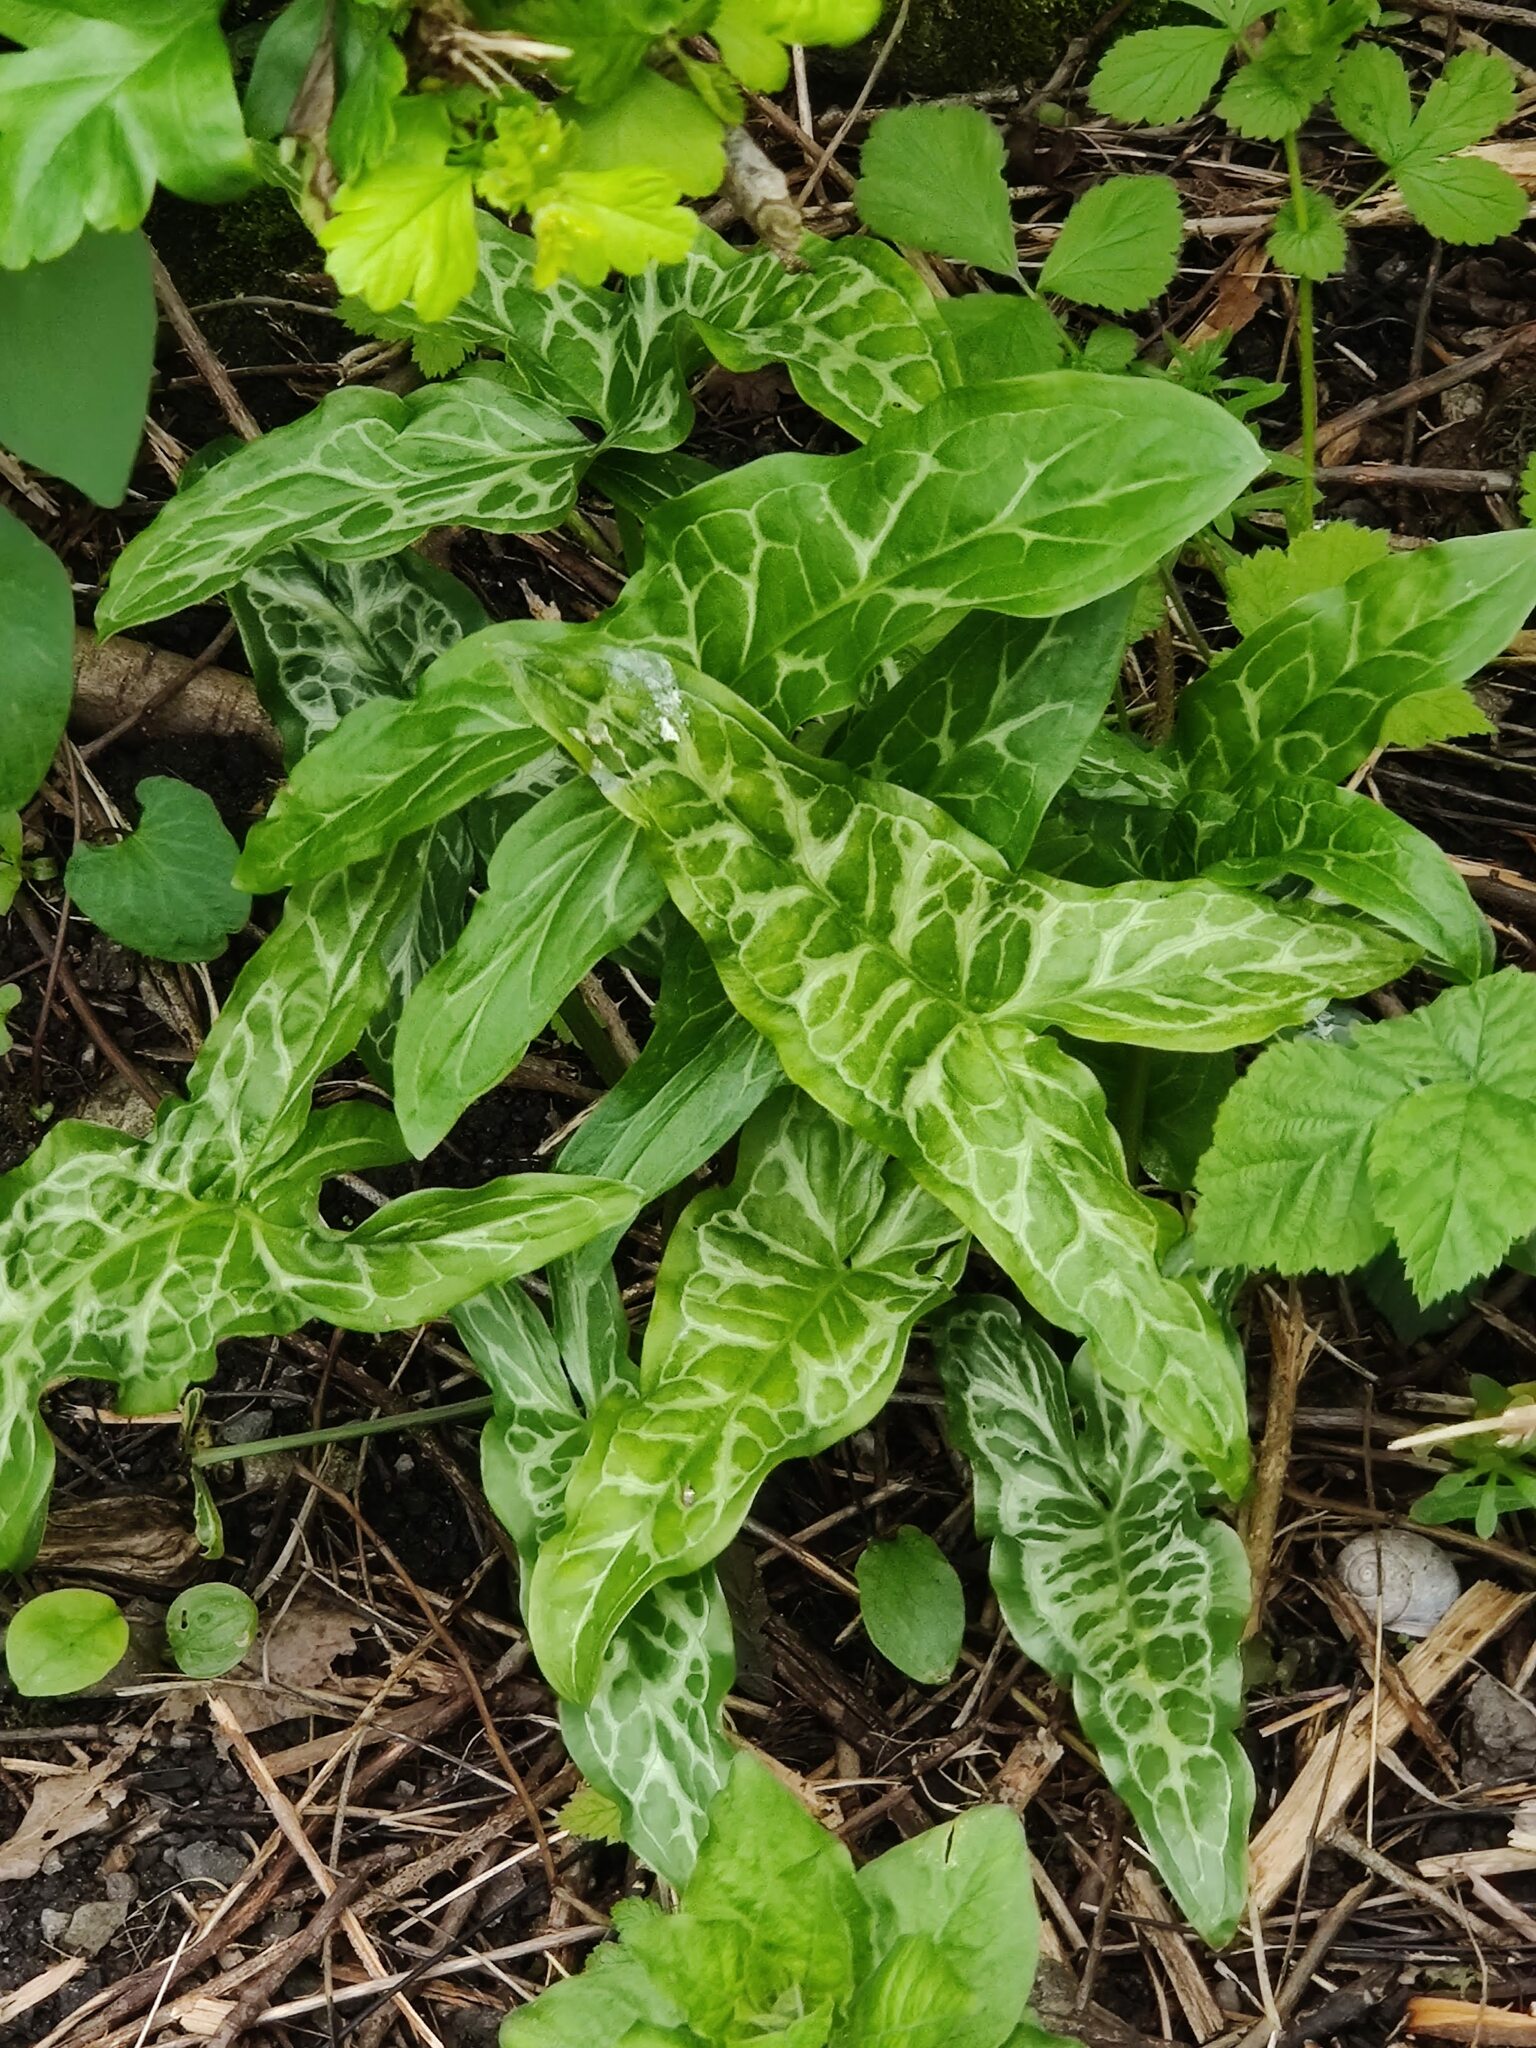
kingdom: Plantae
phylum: Tracheophyta
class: Liliopsida
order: Alismatales
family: Araceae
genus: Arum
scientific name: Arum italicum
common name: Italian lords-and-ladies
